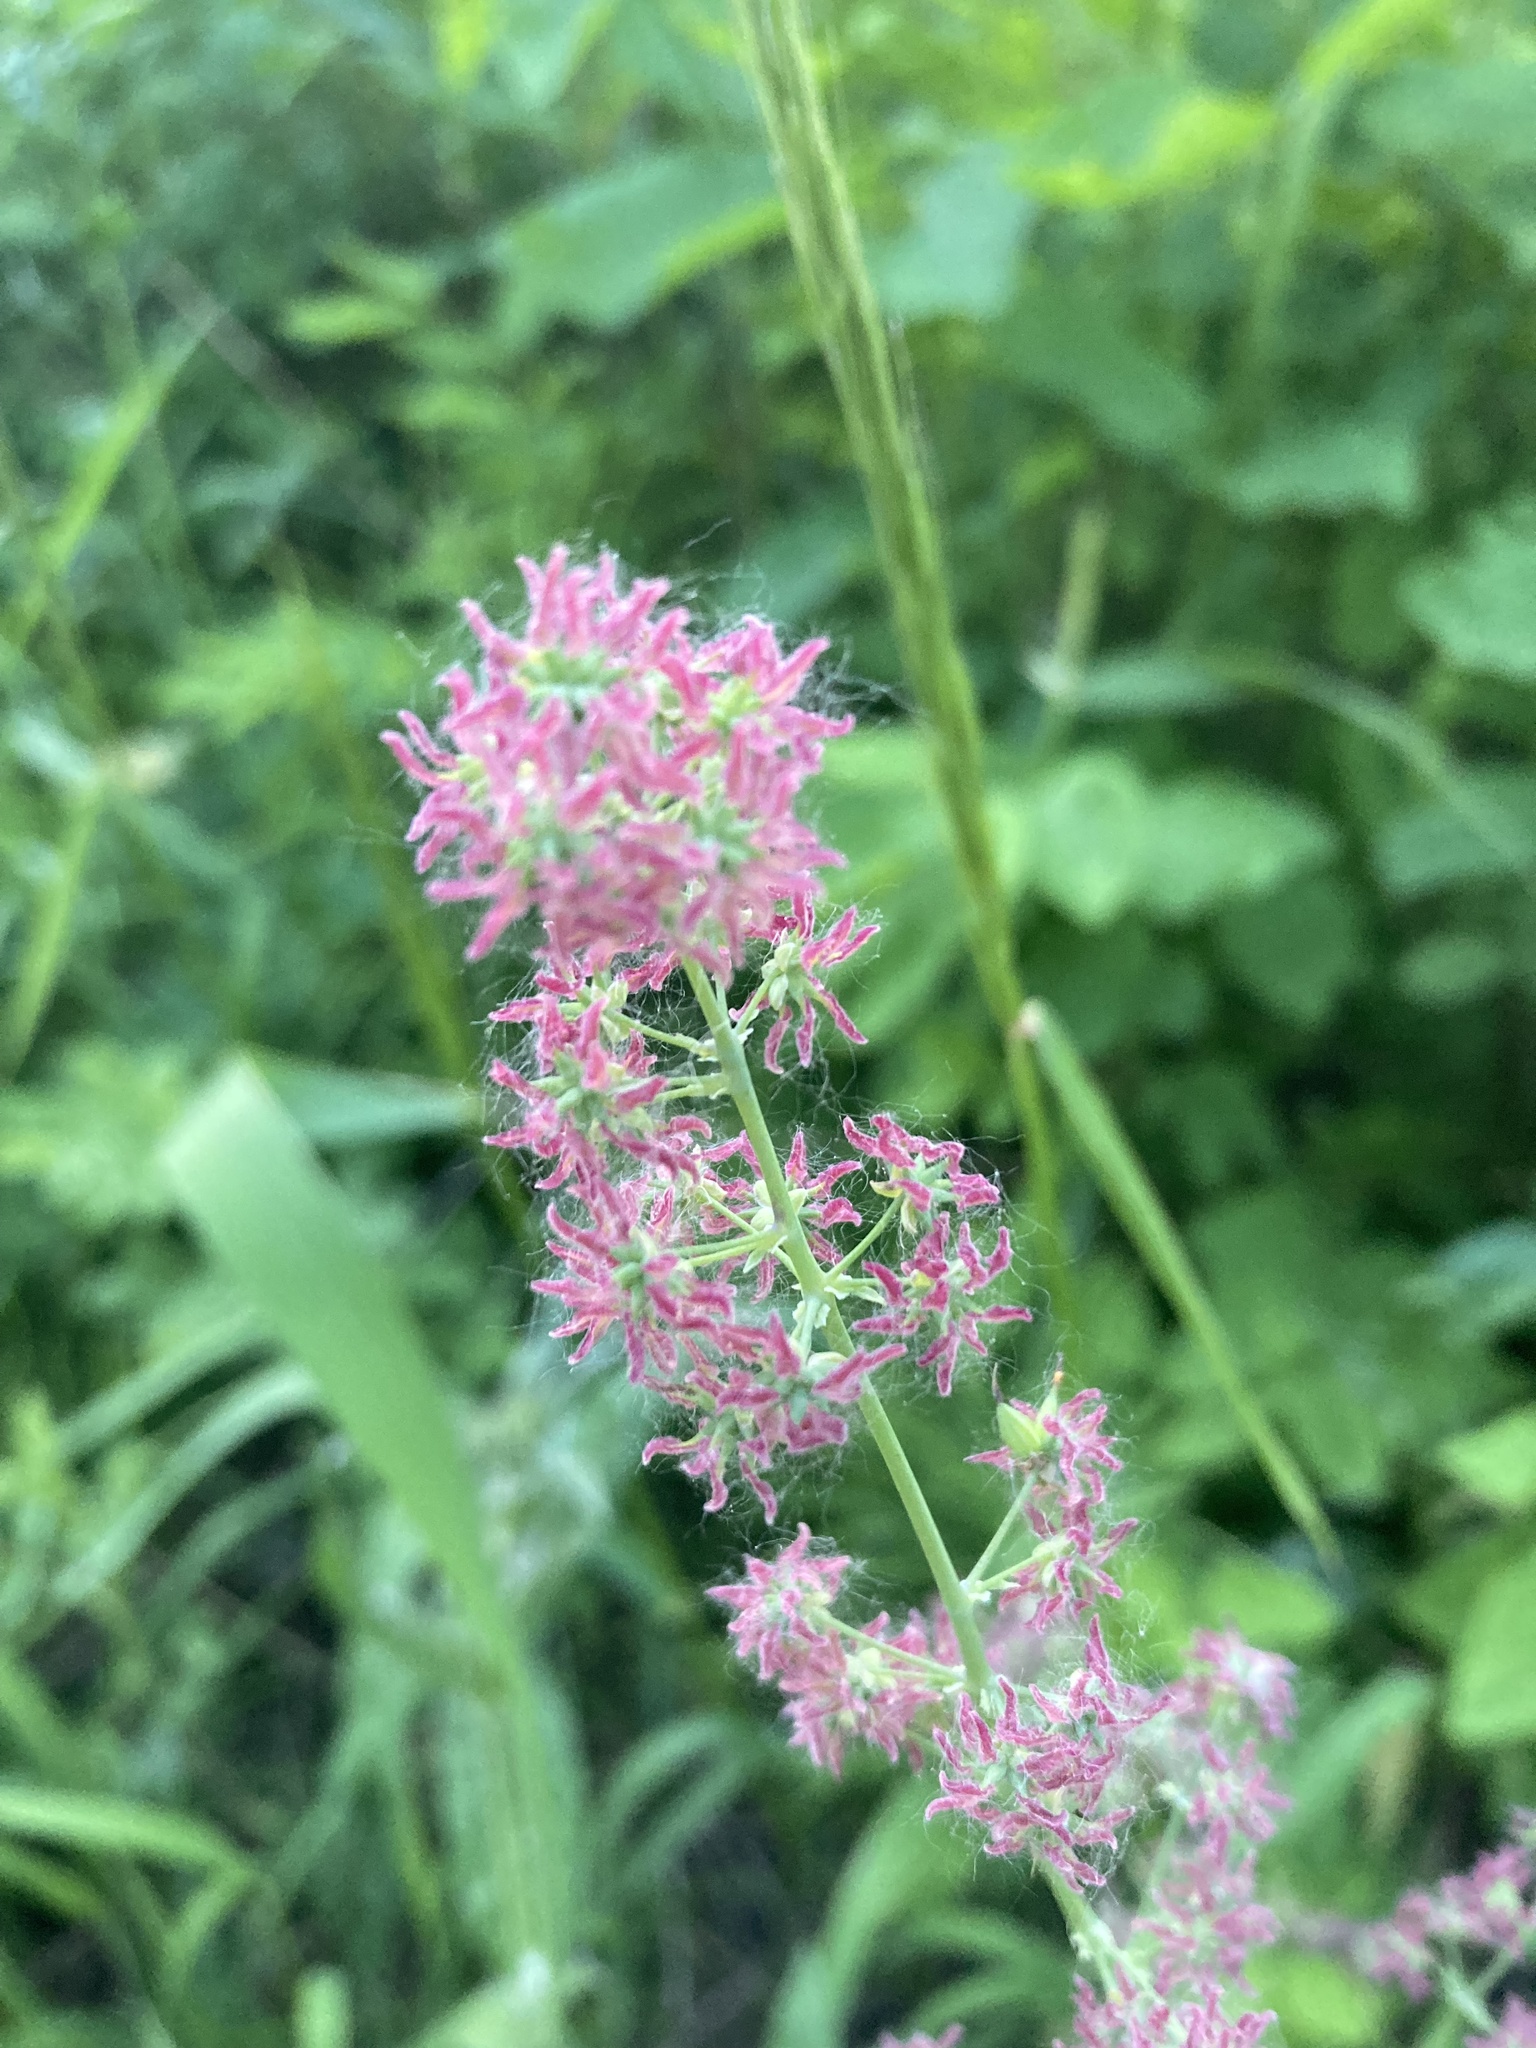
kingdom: Plantae
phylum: Tracheophyta
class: Magnoliopsida
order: Ranunculales
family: Ranunculaceae
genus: Thalictrum
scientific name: Thalictrum venulosum
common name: Early meadow-rue
